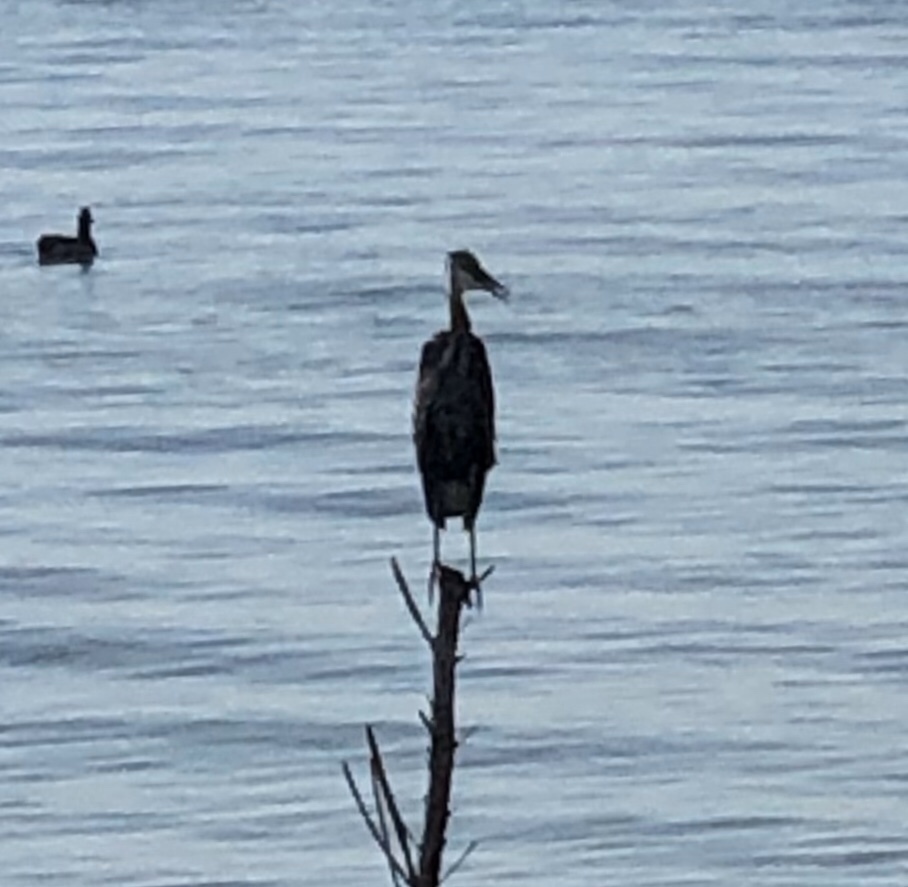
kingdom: Animalia
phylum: Chordata
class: Aves
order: Pelecaniformes
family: Ardeidae
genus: Ardea
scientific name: Ardea herodias
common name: Great blue heron
